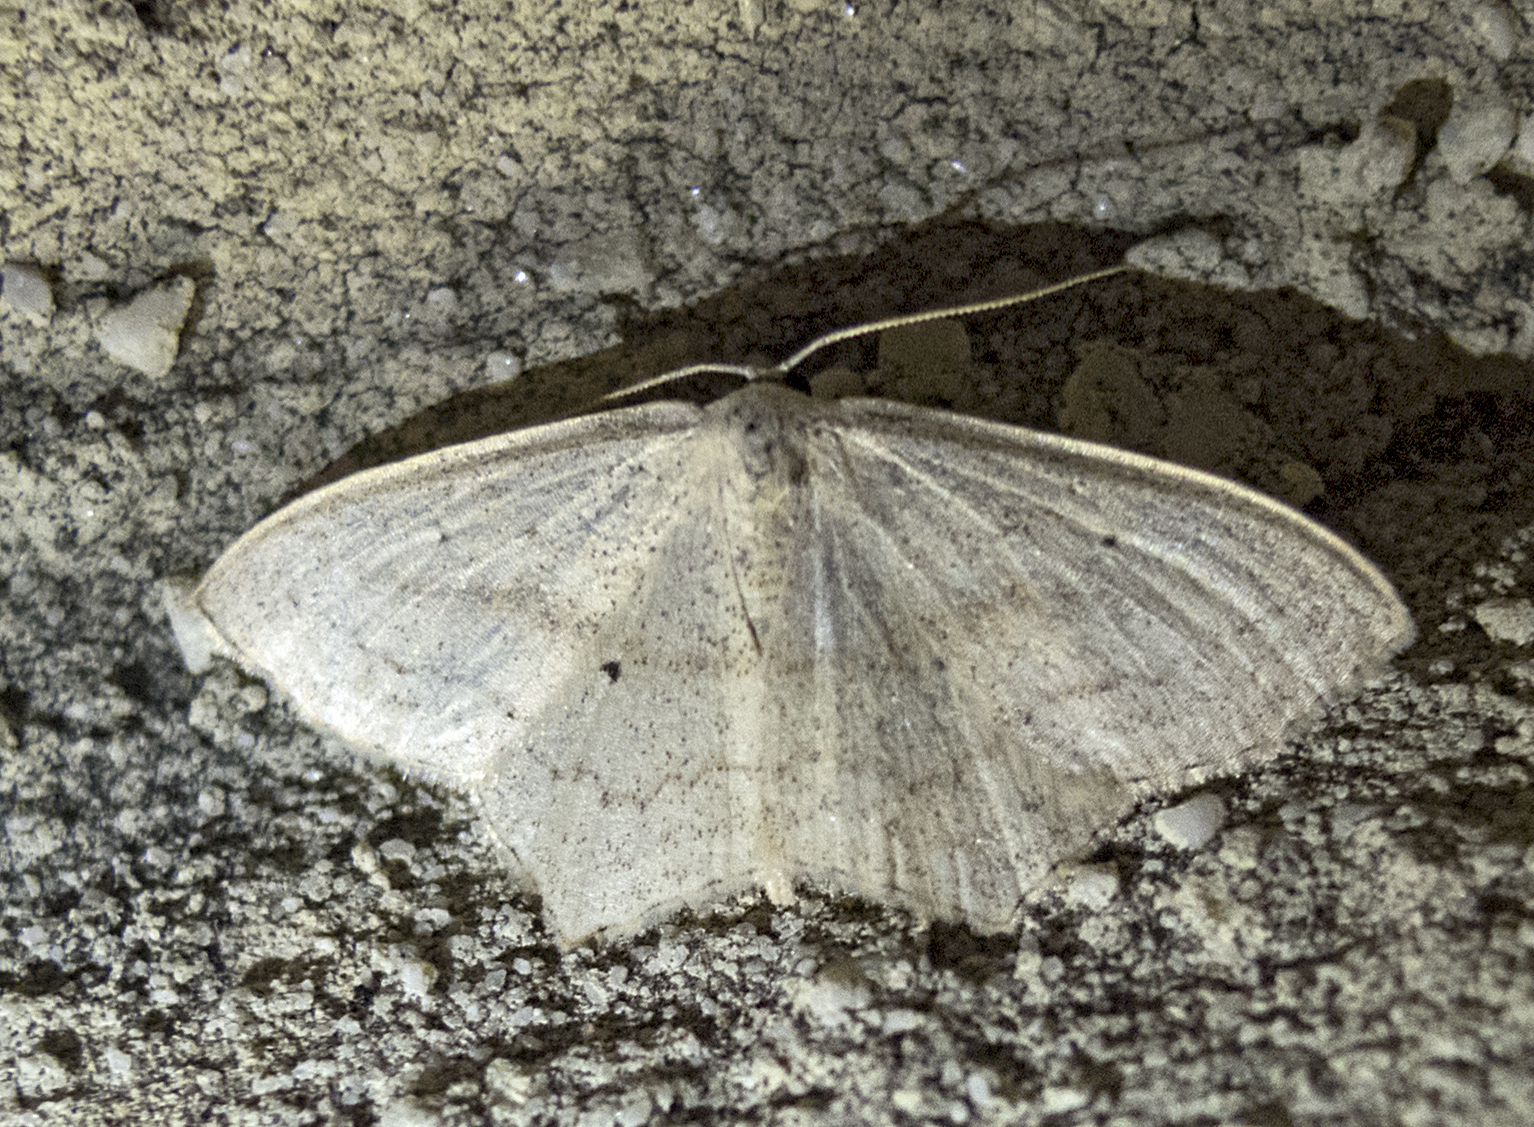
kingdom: Animalia
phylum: Arthropoda
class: Insecta
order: Lepidoptera
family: Geometridae
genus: Scopula
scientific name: Scopula flaccidaria
